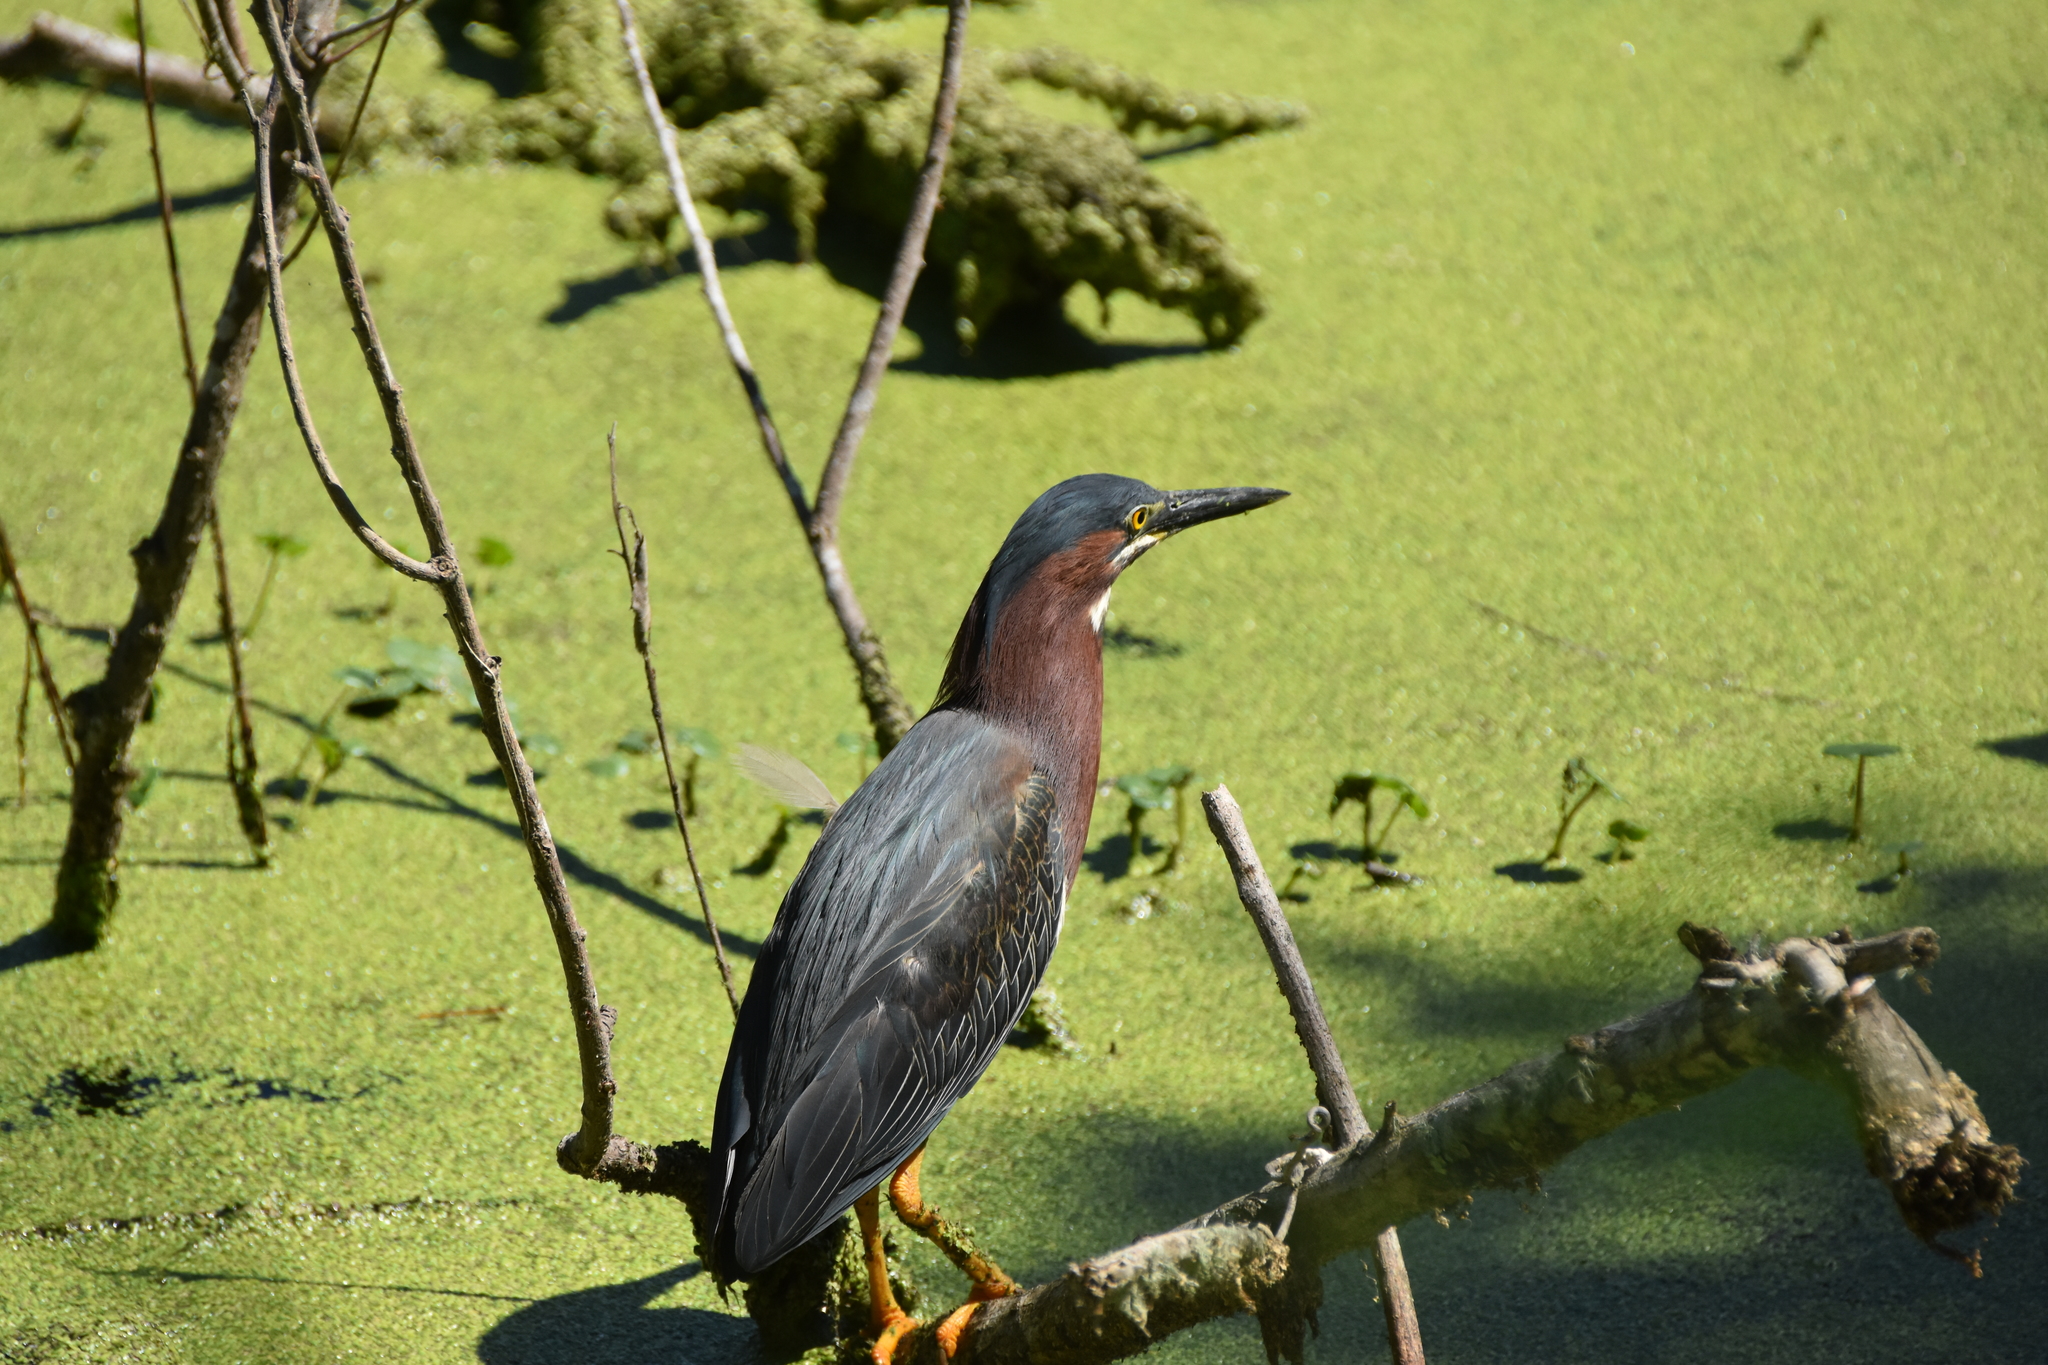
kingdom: Animalia
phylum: Chordata
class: Aves
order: Pelecaniformes
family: Ardeidae
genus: Butorides
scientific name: Butorides virescens
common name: Green heron
